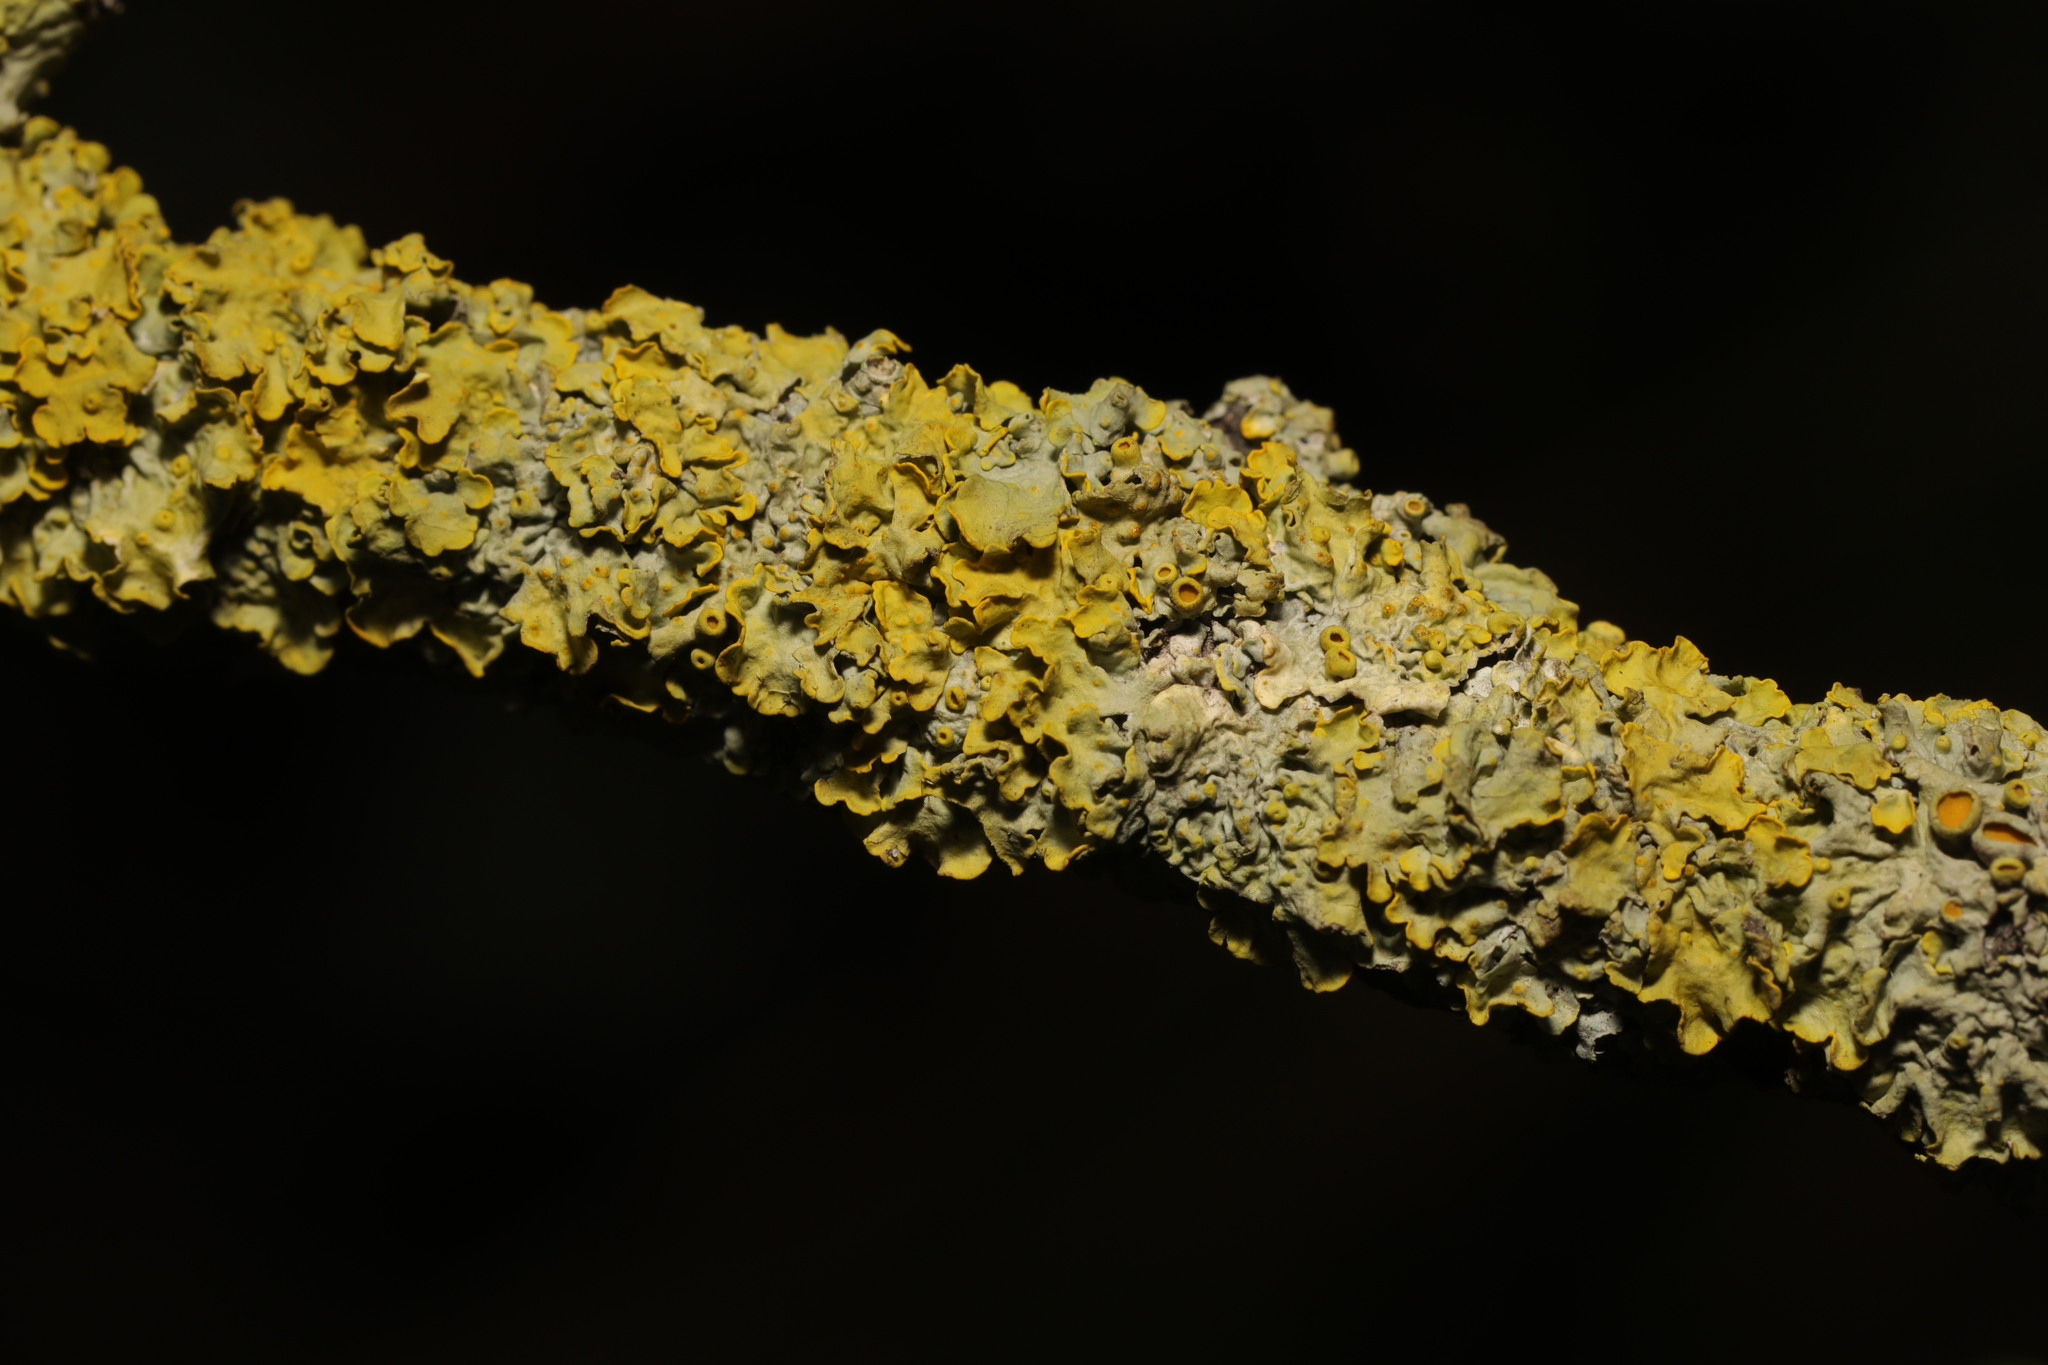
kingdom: Fungi
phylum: Ascomycota
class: Lecanoromycetes
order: Teloschistales
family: Teloschistaceae
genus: Xanthoria
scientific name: Xanthoria parietina
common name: Common orange lichen
